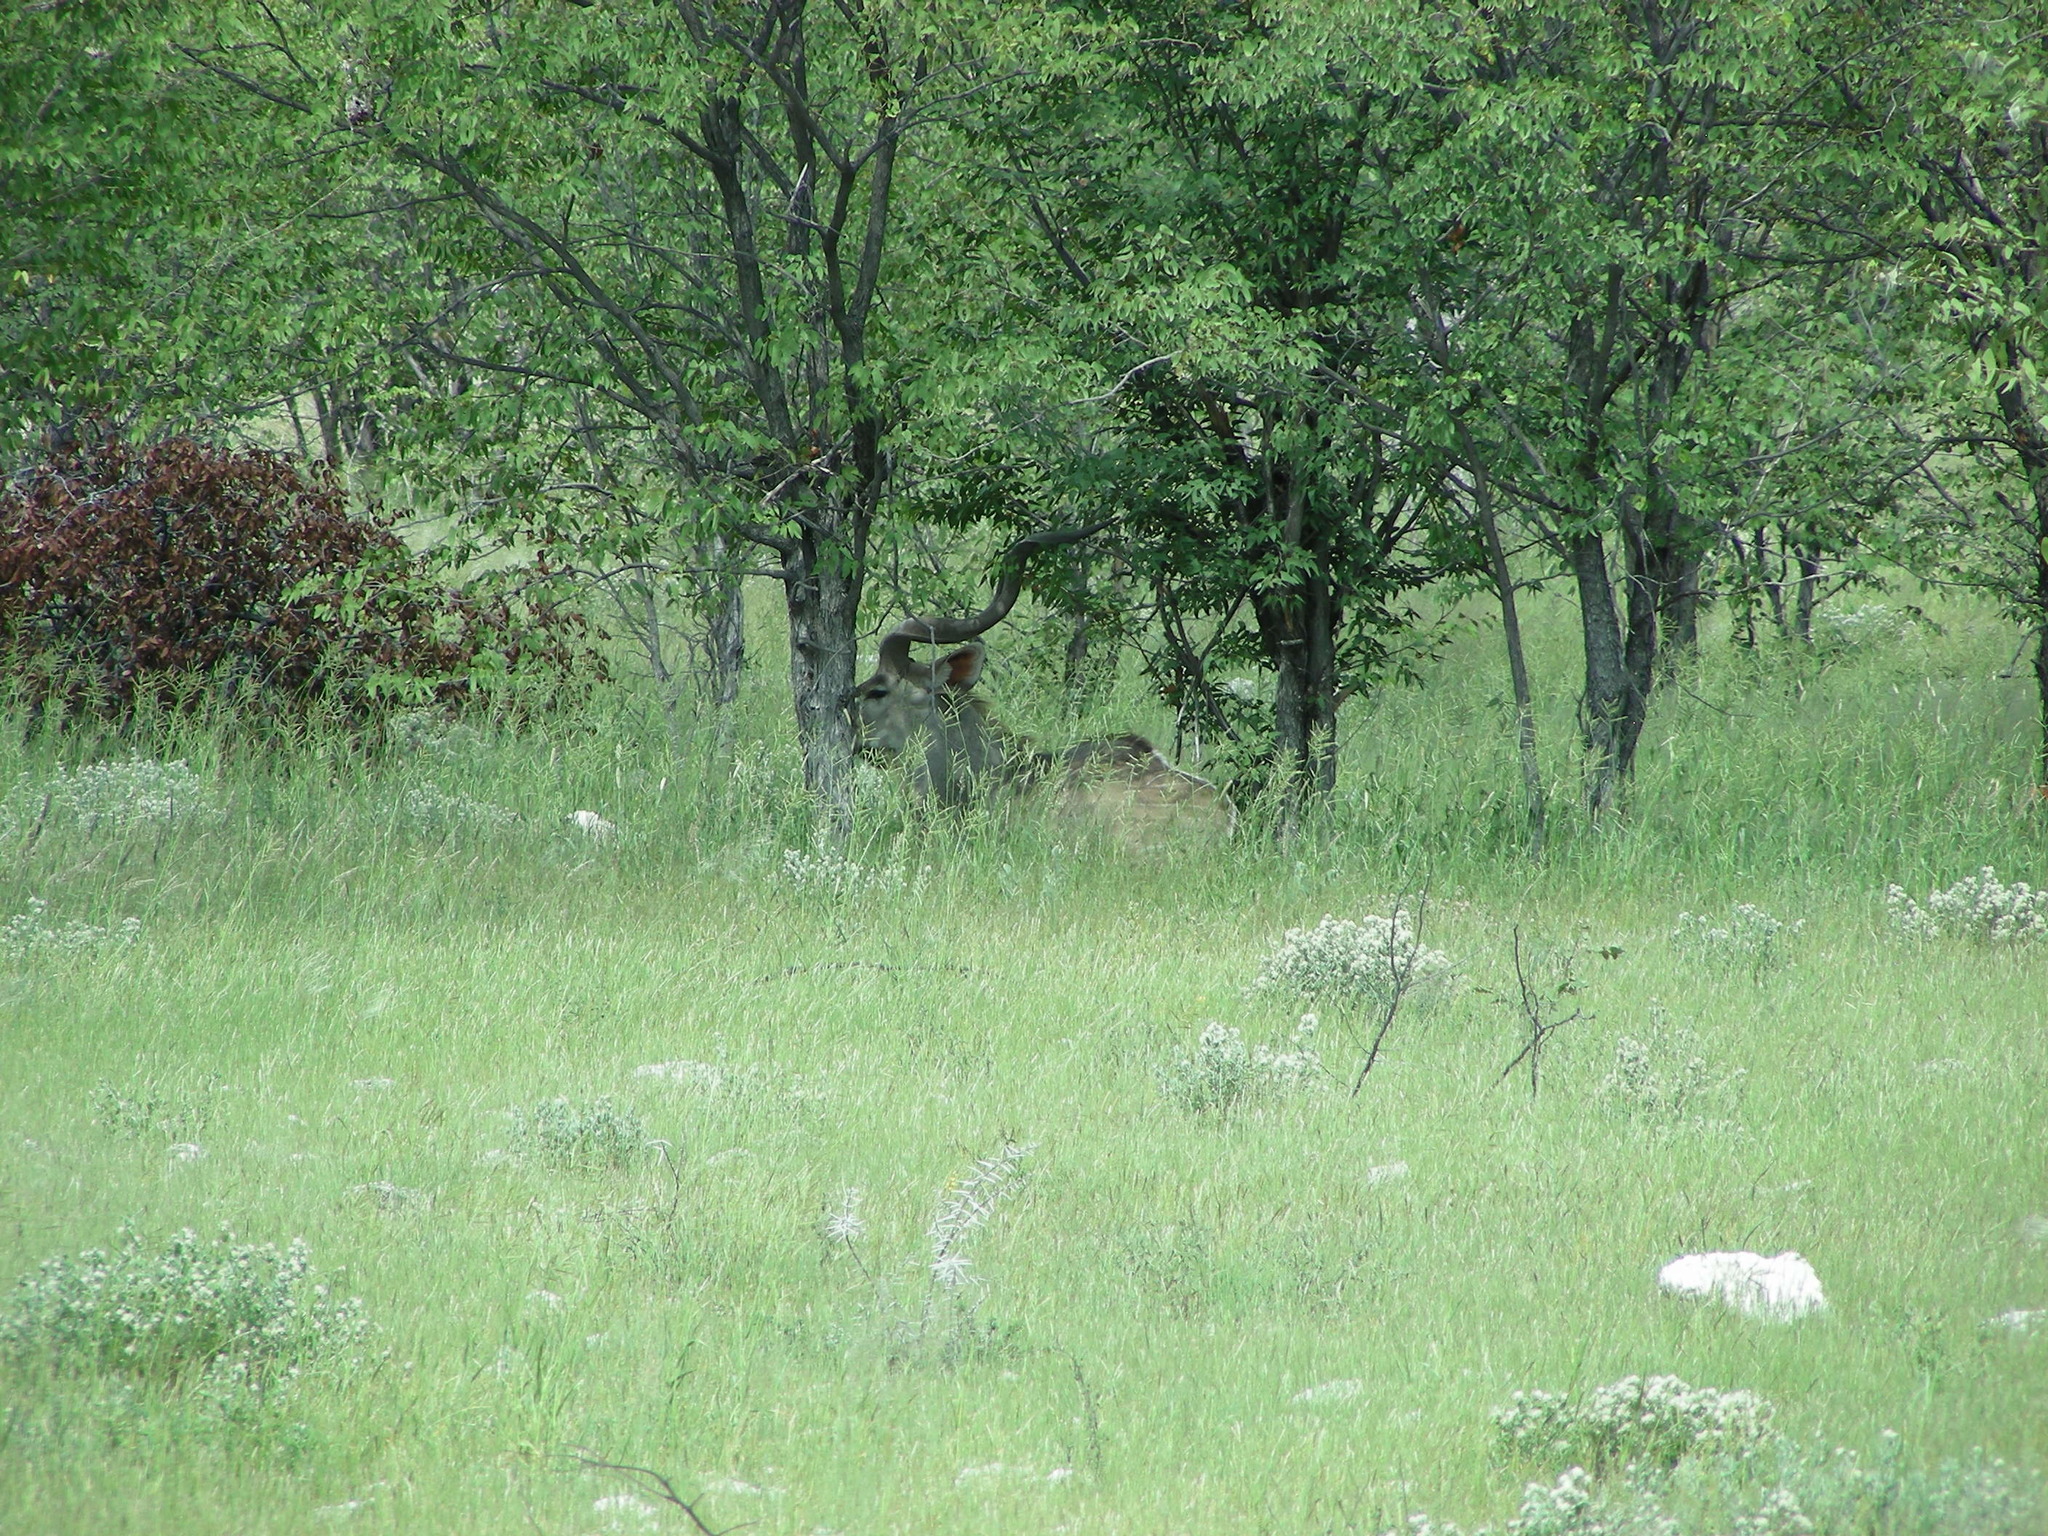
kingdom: Animalia
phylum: Chordata
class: Mammalia
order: Artiodactyla
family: Bovidae
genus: Tragelaphus
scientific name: Tragelaphus strepsiceros
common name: Greater kudu
